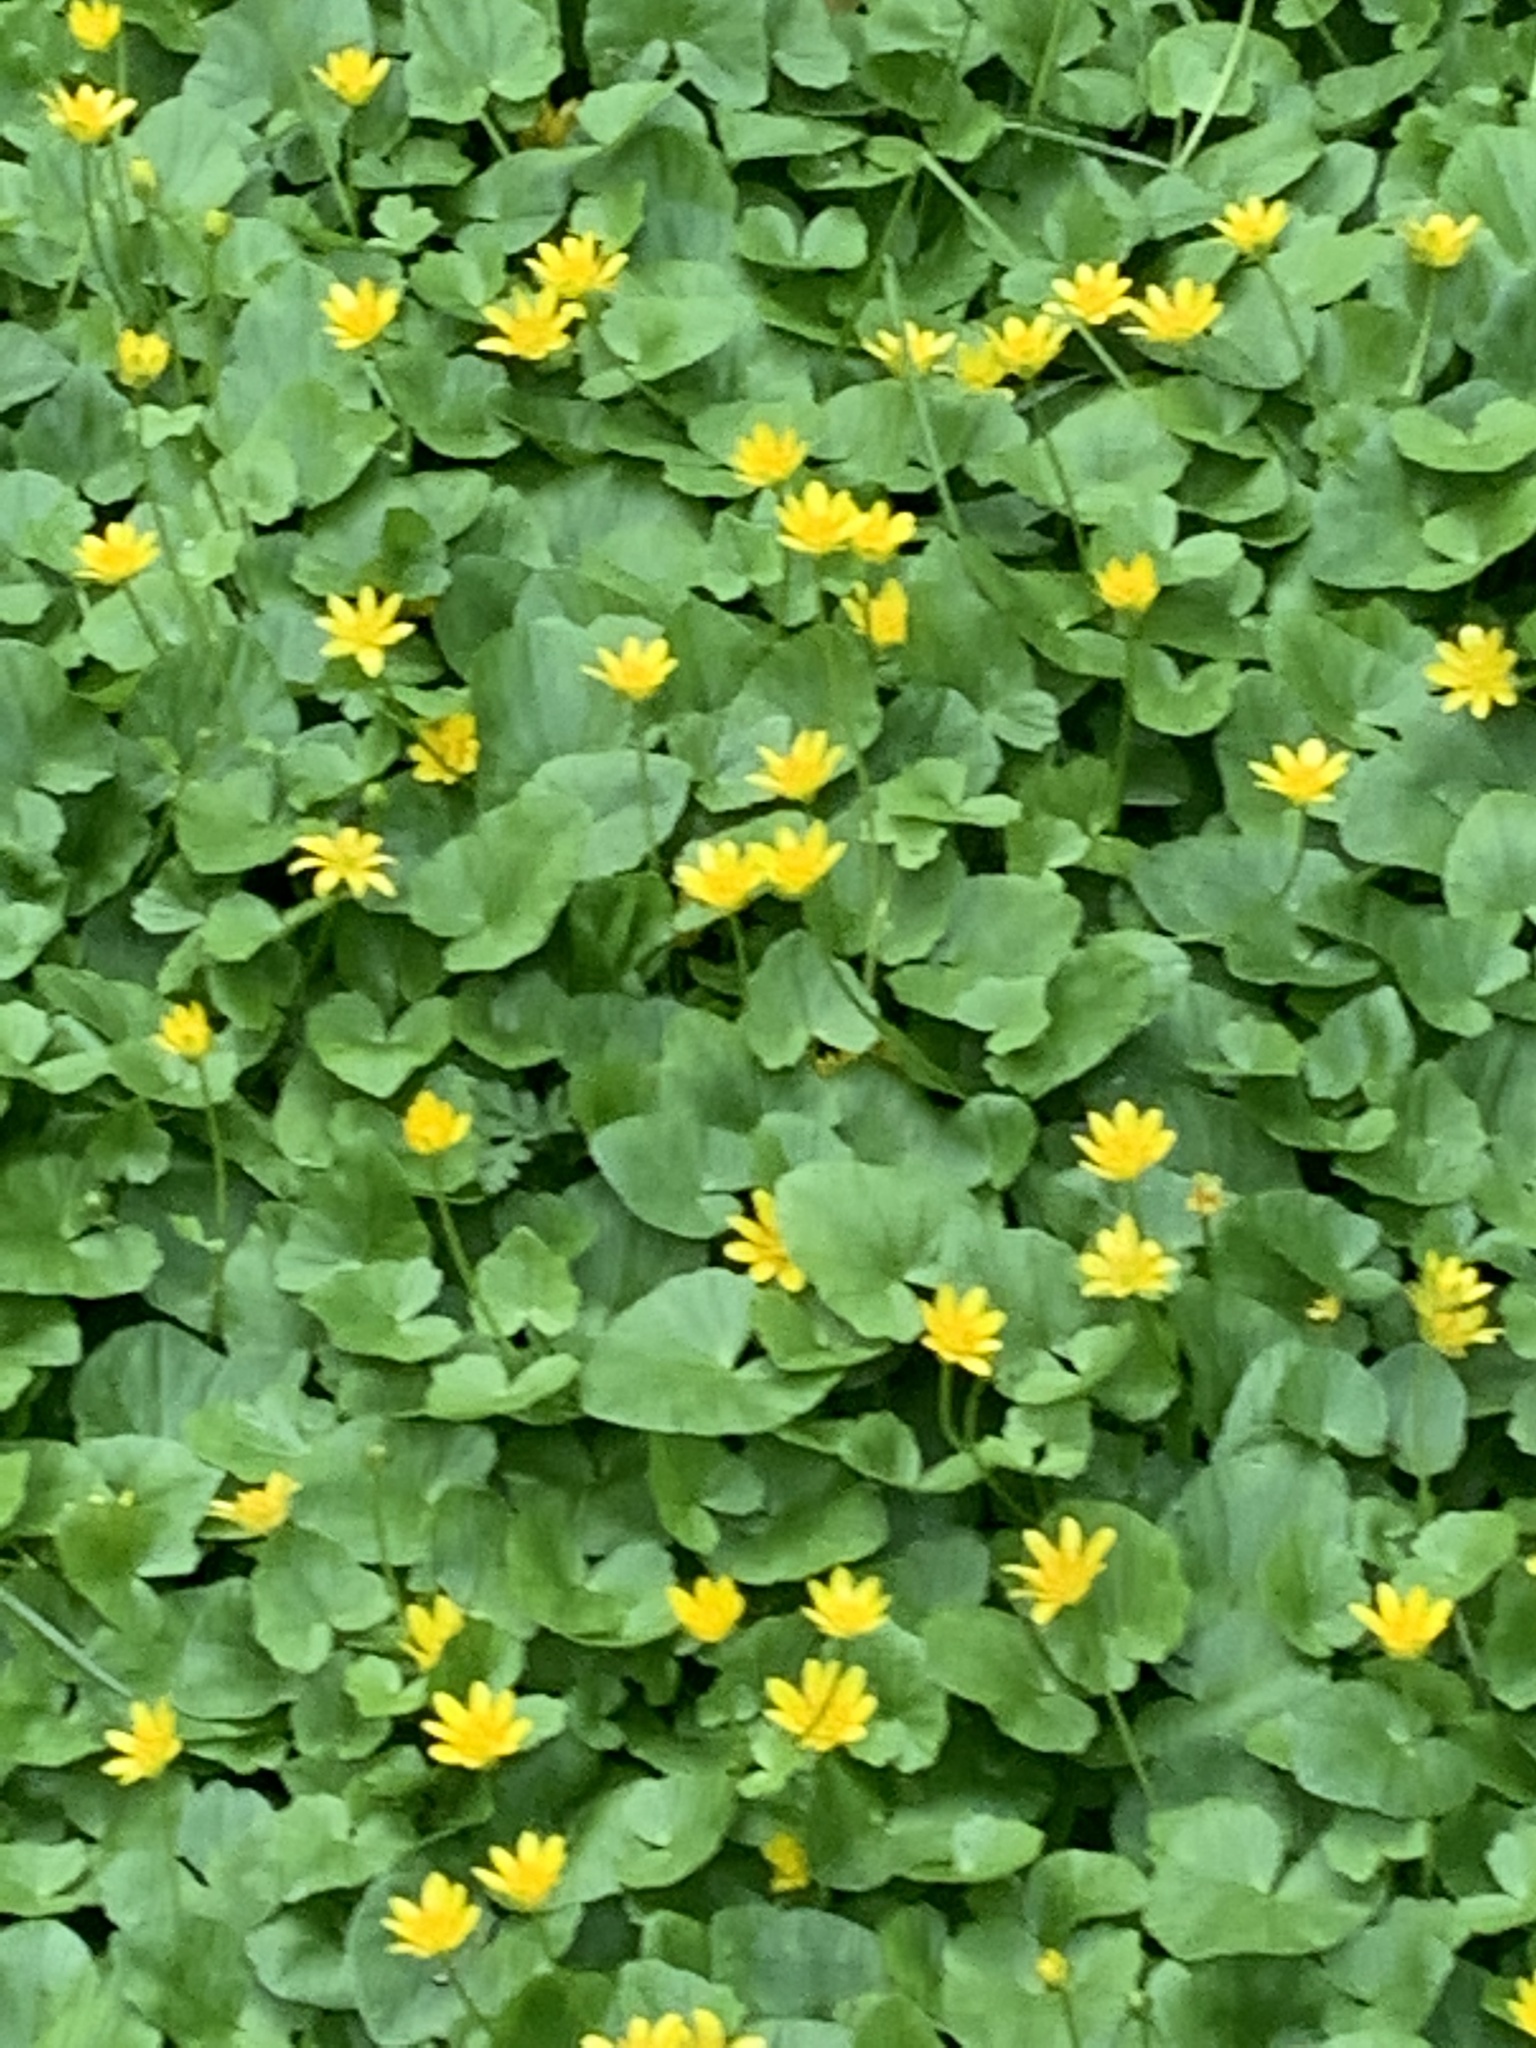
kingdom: Plantae
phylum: Tracheophyta
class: Magnoliopsida
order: Ranunculales
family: Ranunculaceae
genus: Ficaria
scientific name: Ficaria verna
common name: Lesser celandine
